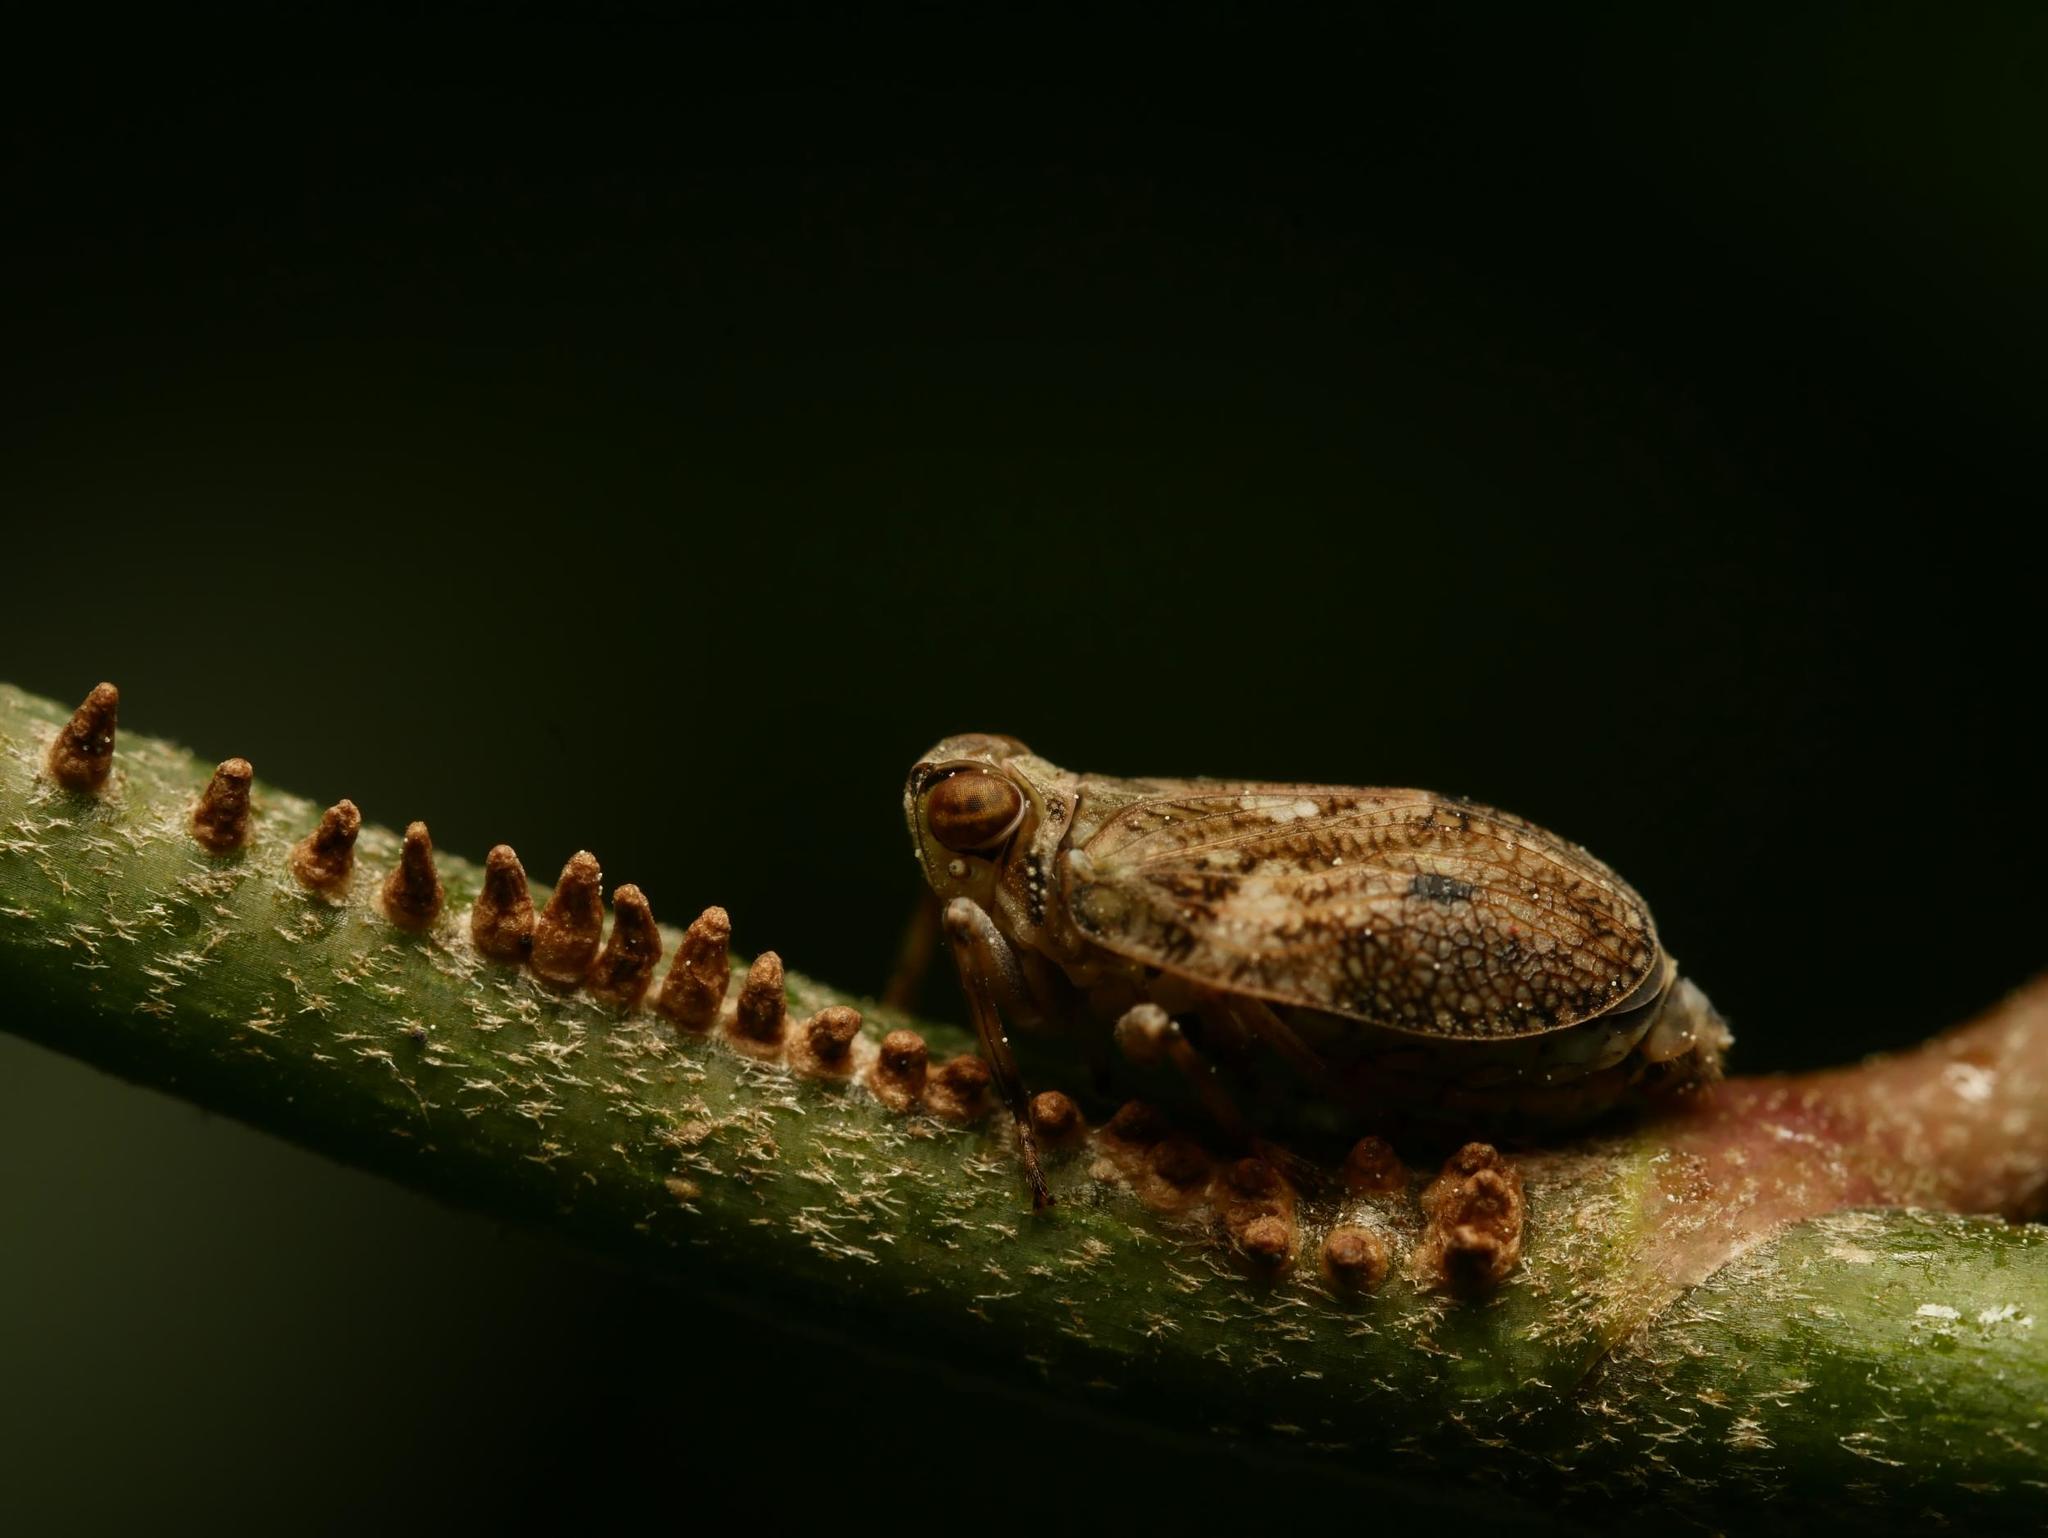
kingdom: Animalia
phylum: Arthropoda
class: Insecta
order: Hemiptera
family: Issidae
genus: Issus
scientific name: Issus coleoptratus
